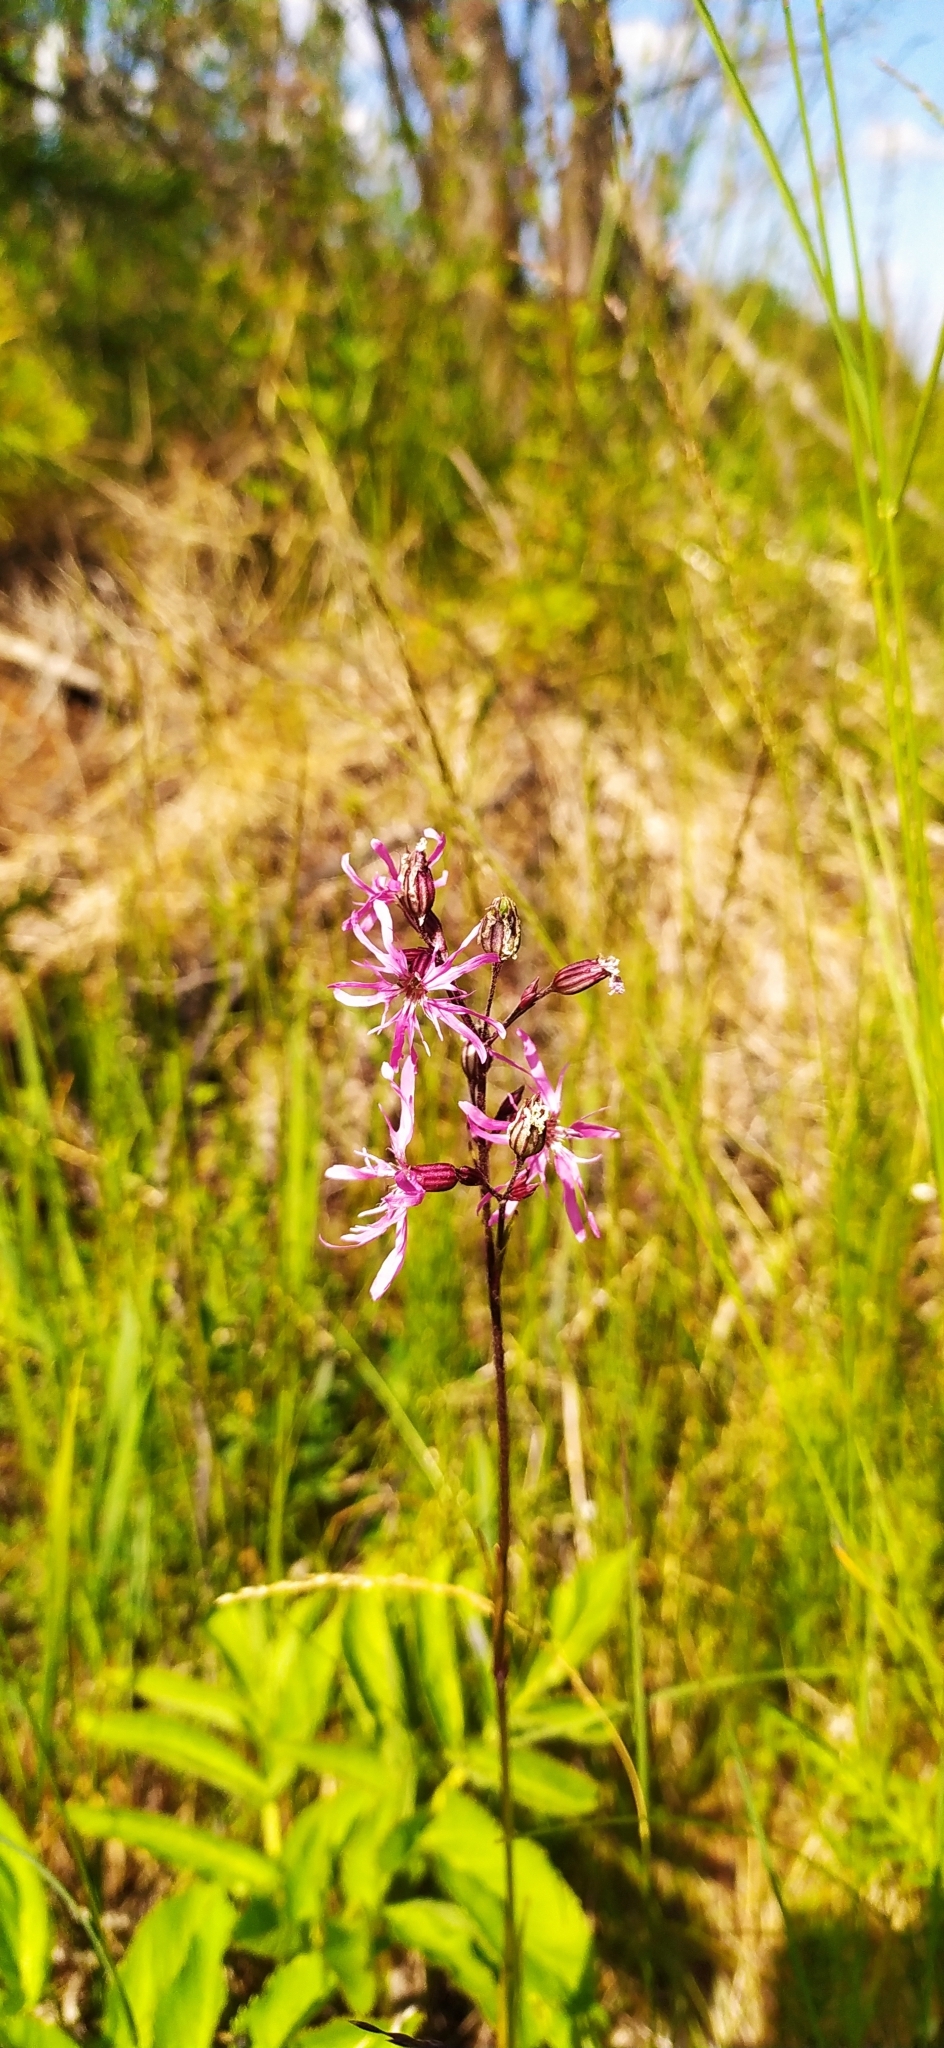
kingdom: Plantae
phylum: Tracheophyta
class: Magnoliopsida
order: Caryophyllales
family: Caryophyllaceae
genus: Silene
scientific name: Silene flos-cuculi
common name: Ragged-robin
